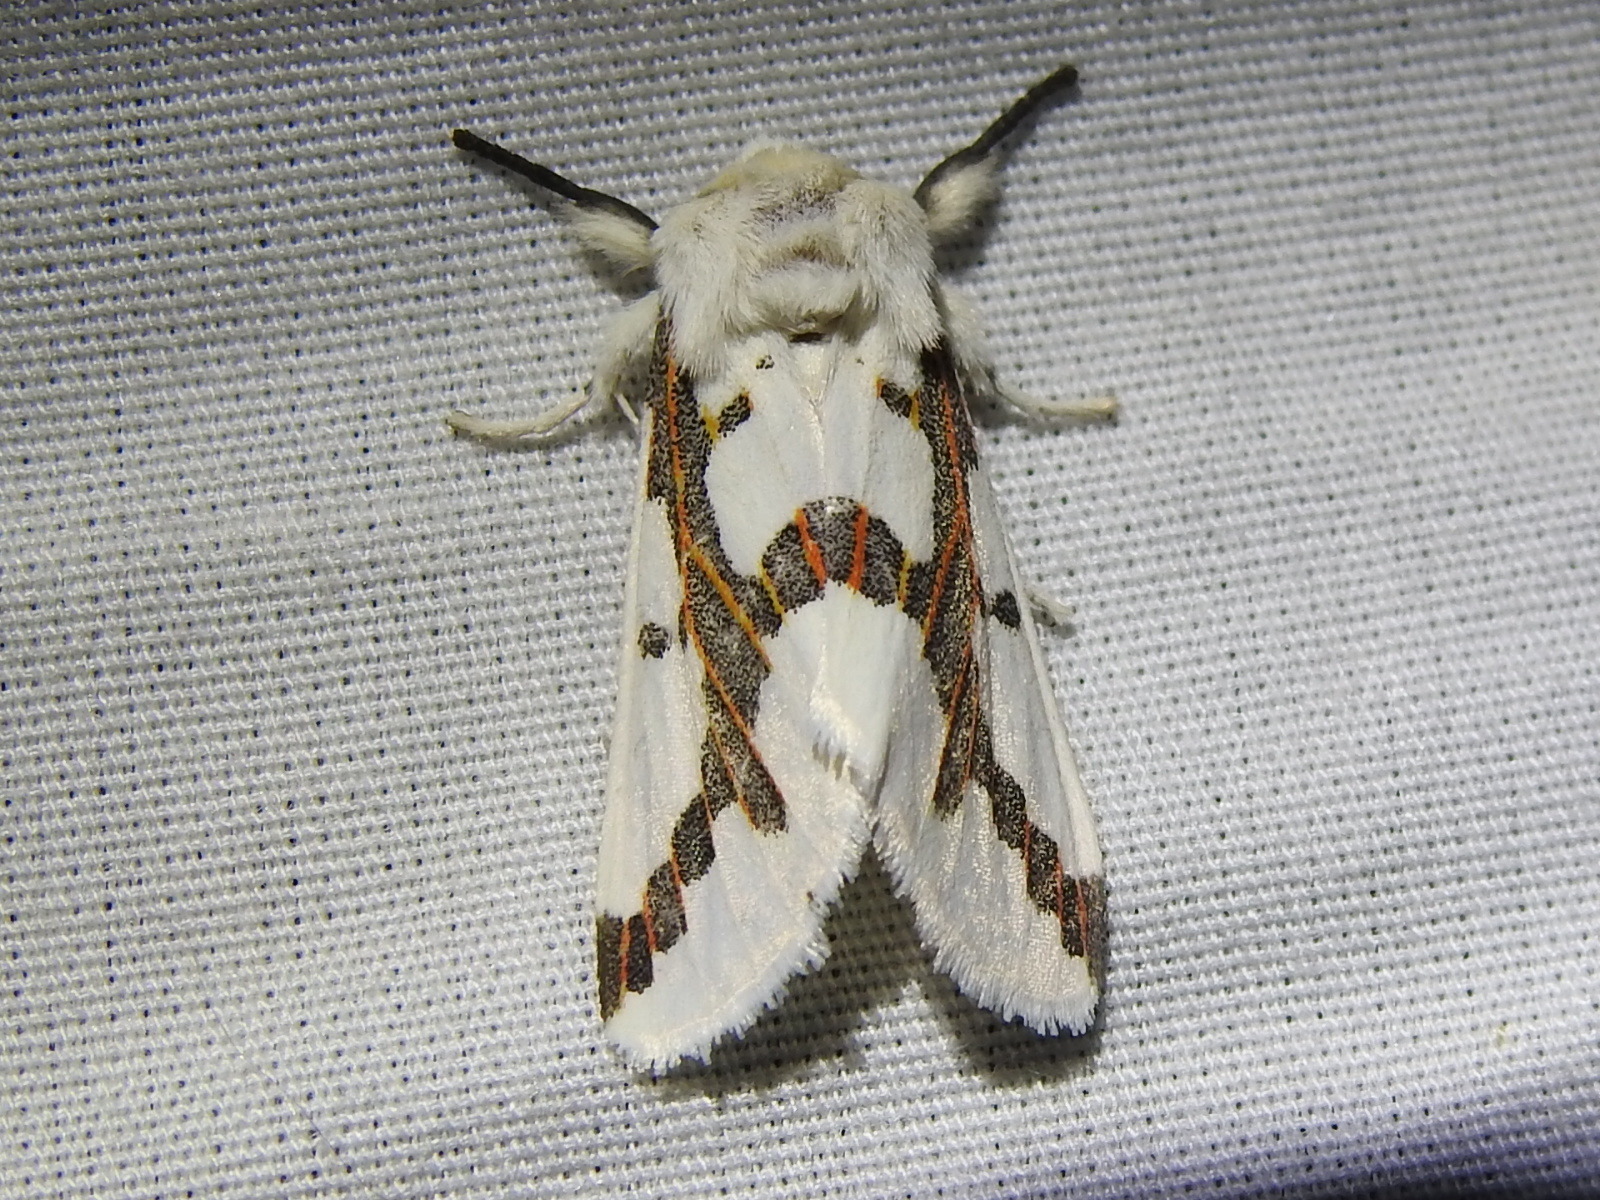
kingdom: Animalia
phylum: Arthropoda
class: Insecta
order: Lepidoptera
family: Erebidae
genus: Euerythra
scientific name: Euerythra phasma
